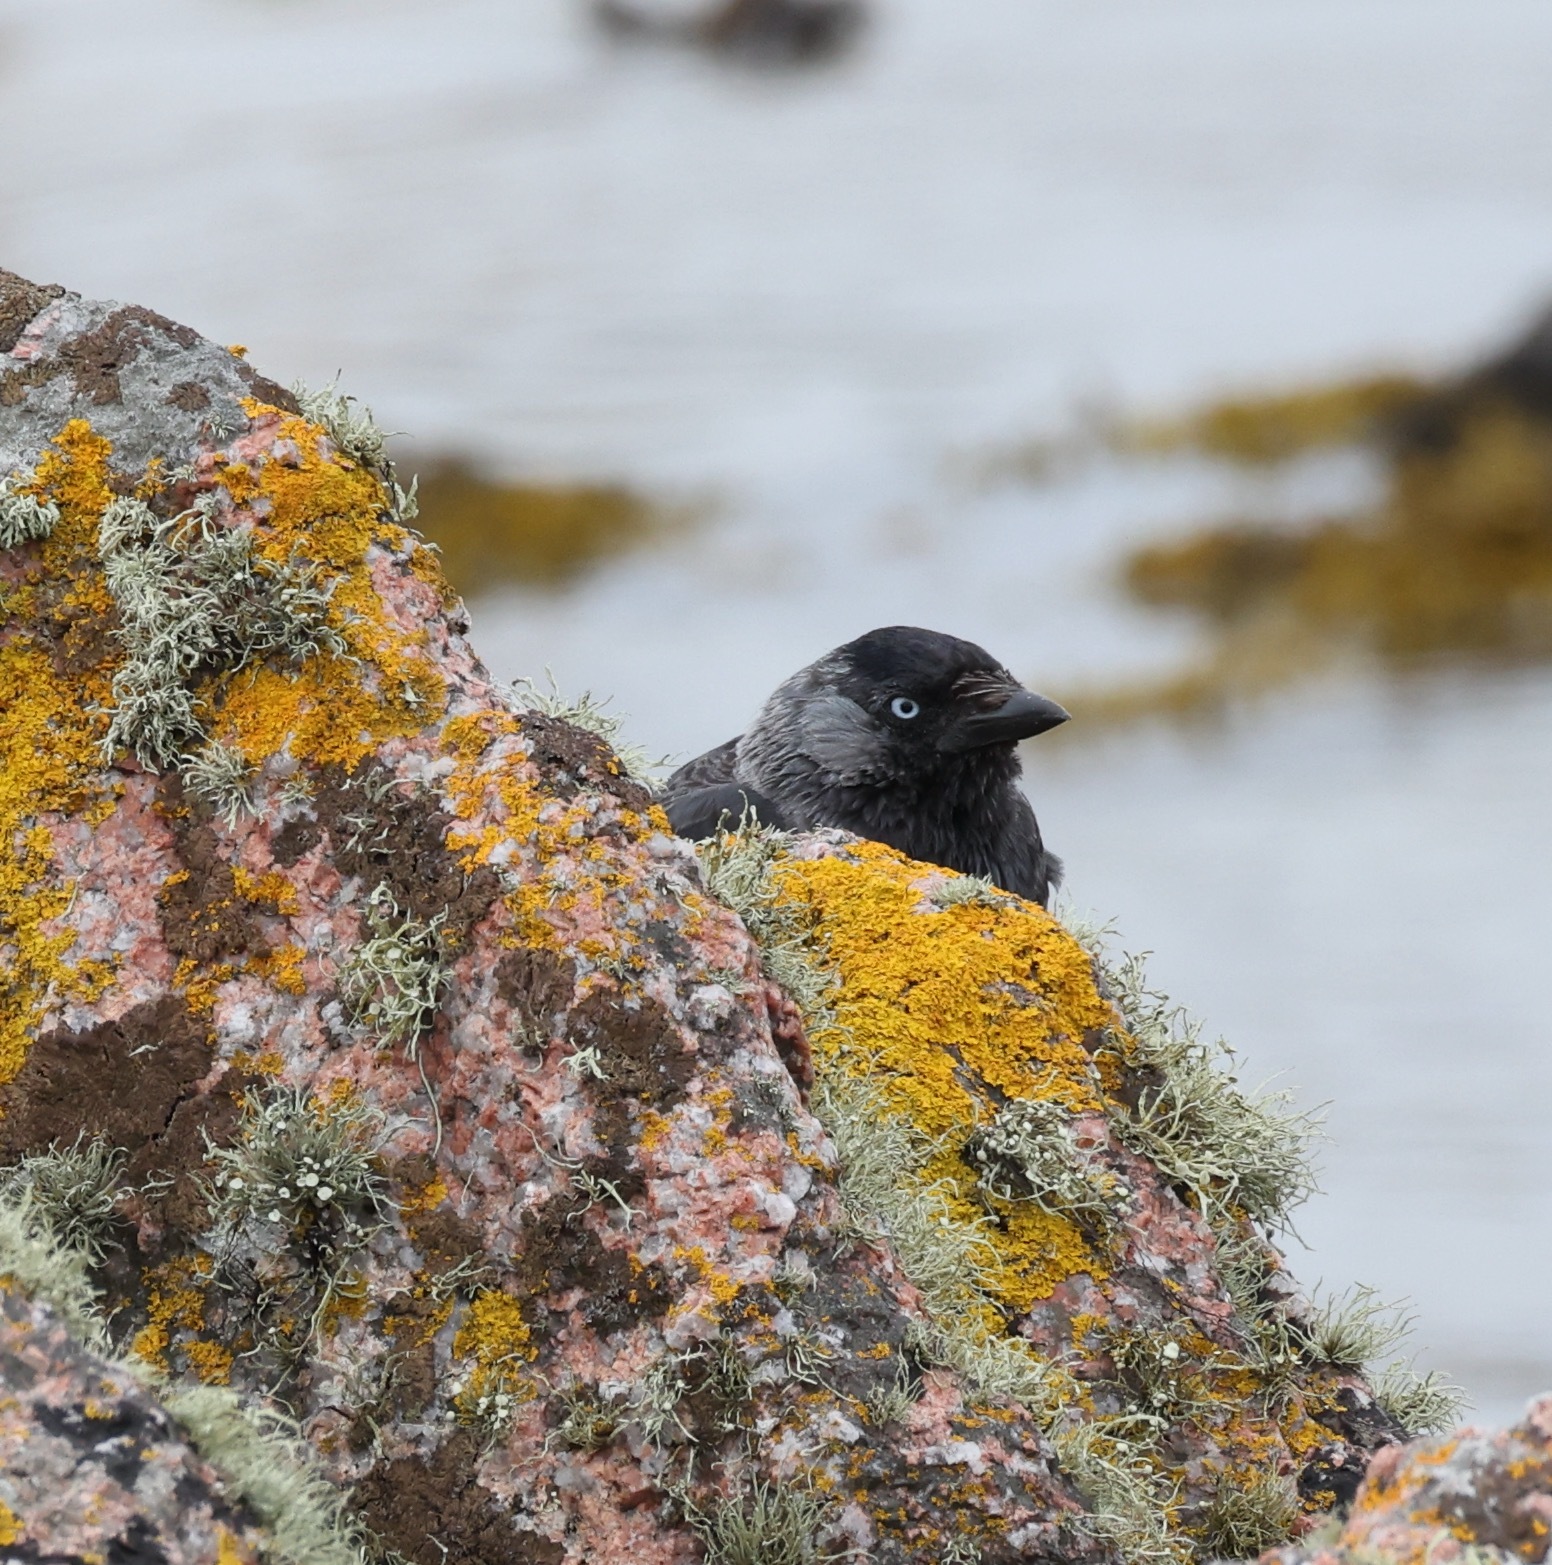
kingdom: Animalia
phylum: Chordata
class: Aves
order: Passeriformes
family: Corvidae
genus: Coloeus
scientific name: Coloeus monedula
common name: Western jackdaw
